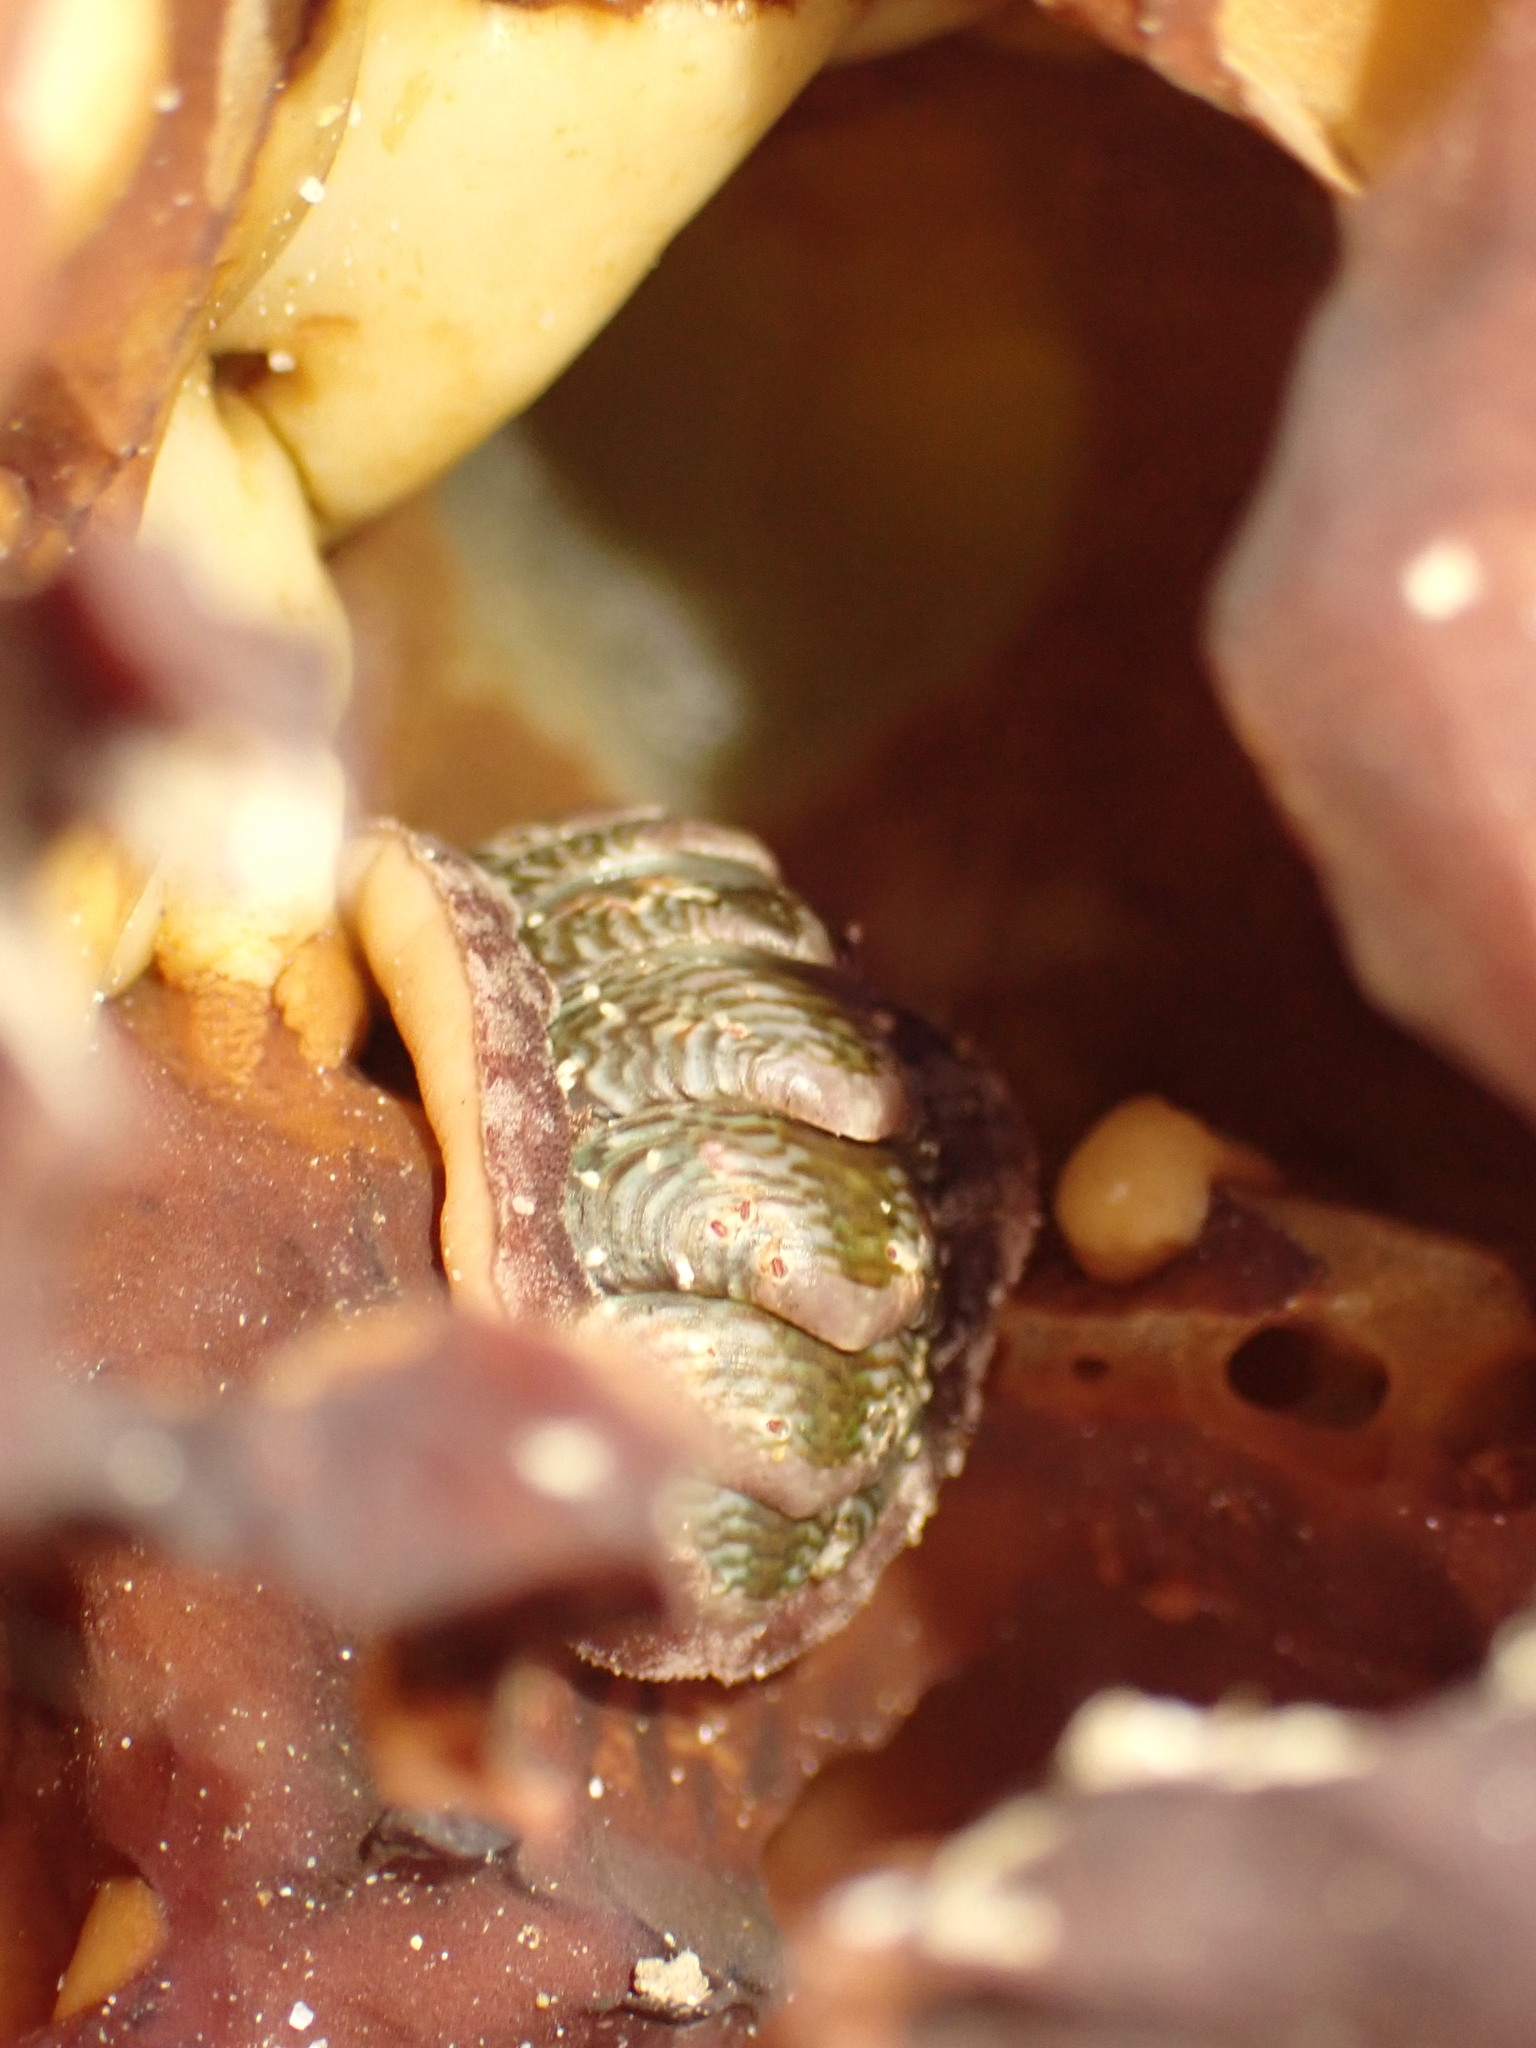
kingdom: Animalia
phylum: Mollusca
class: Polyplacophora
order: Chitonida
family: Chitonidae
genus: Onithochiton
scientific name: Onithochiton neglectus
